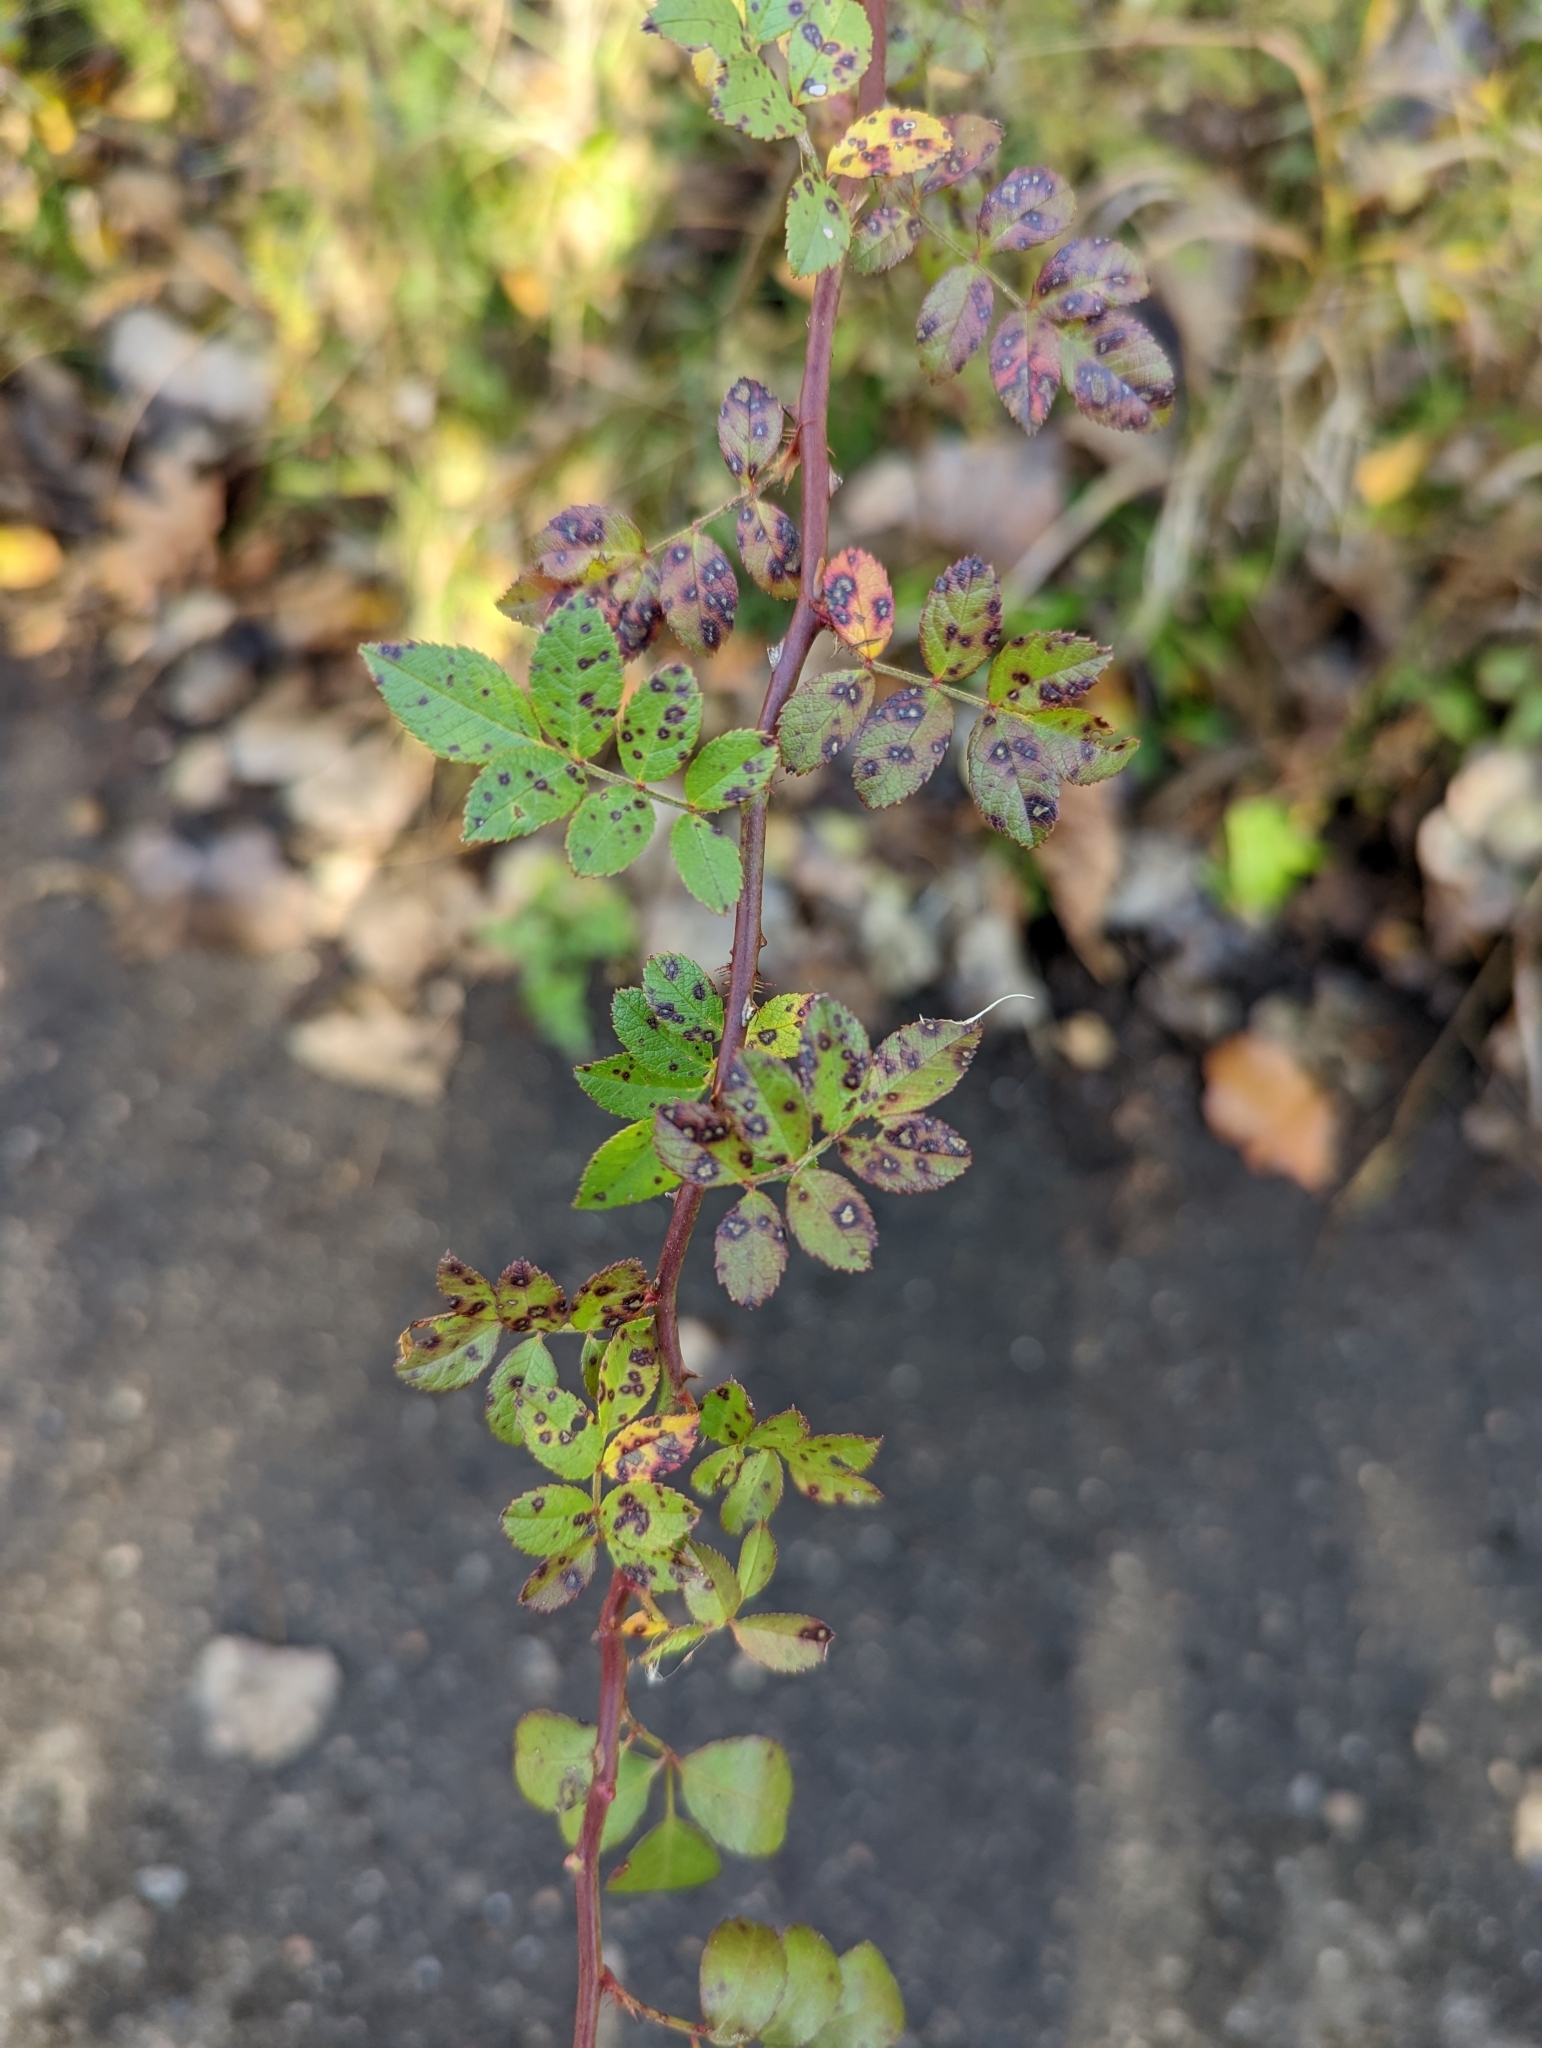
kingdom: Plantae
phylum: Tracheophyta
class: Magnoliopsida
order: Rosales
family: Rosaceae
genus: Rosa
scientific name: Rosa multiflora
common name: Multiflora rose
